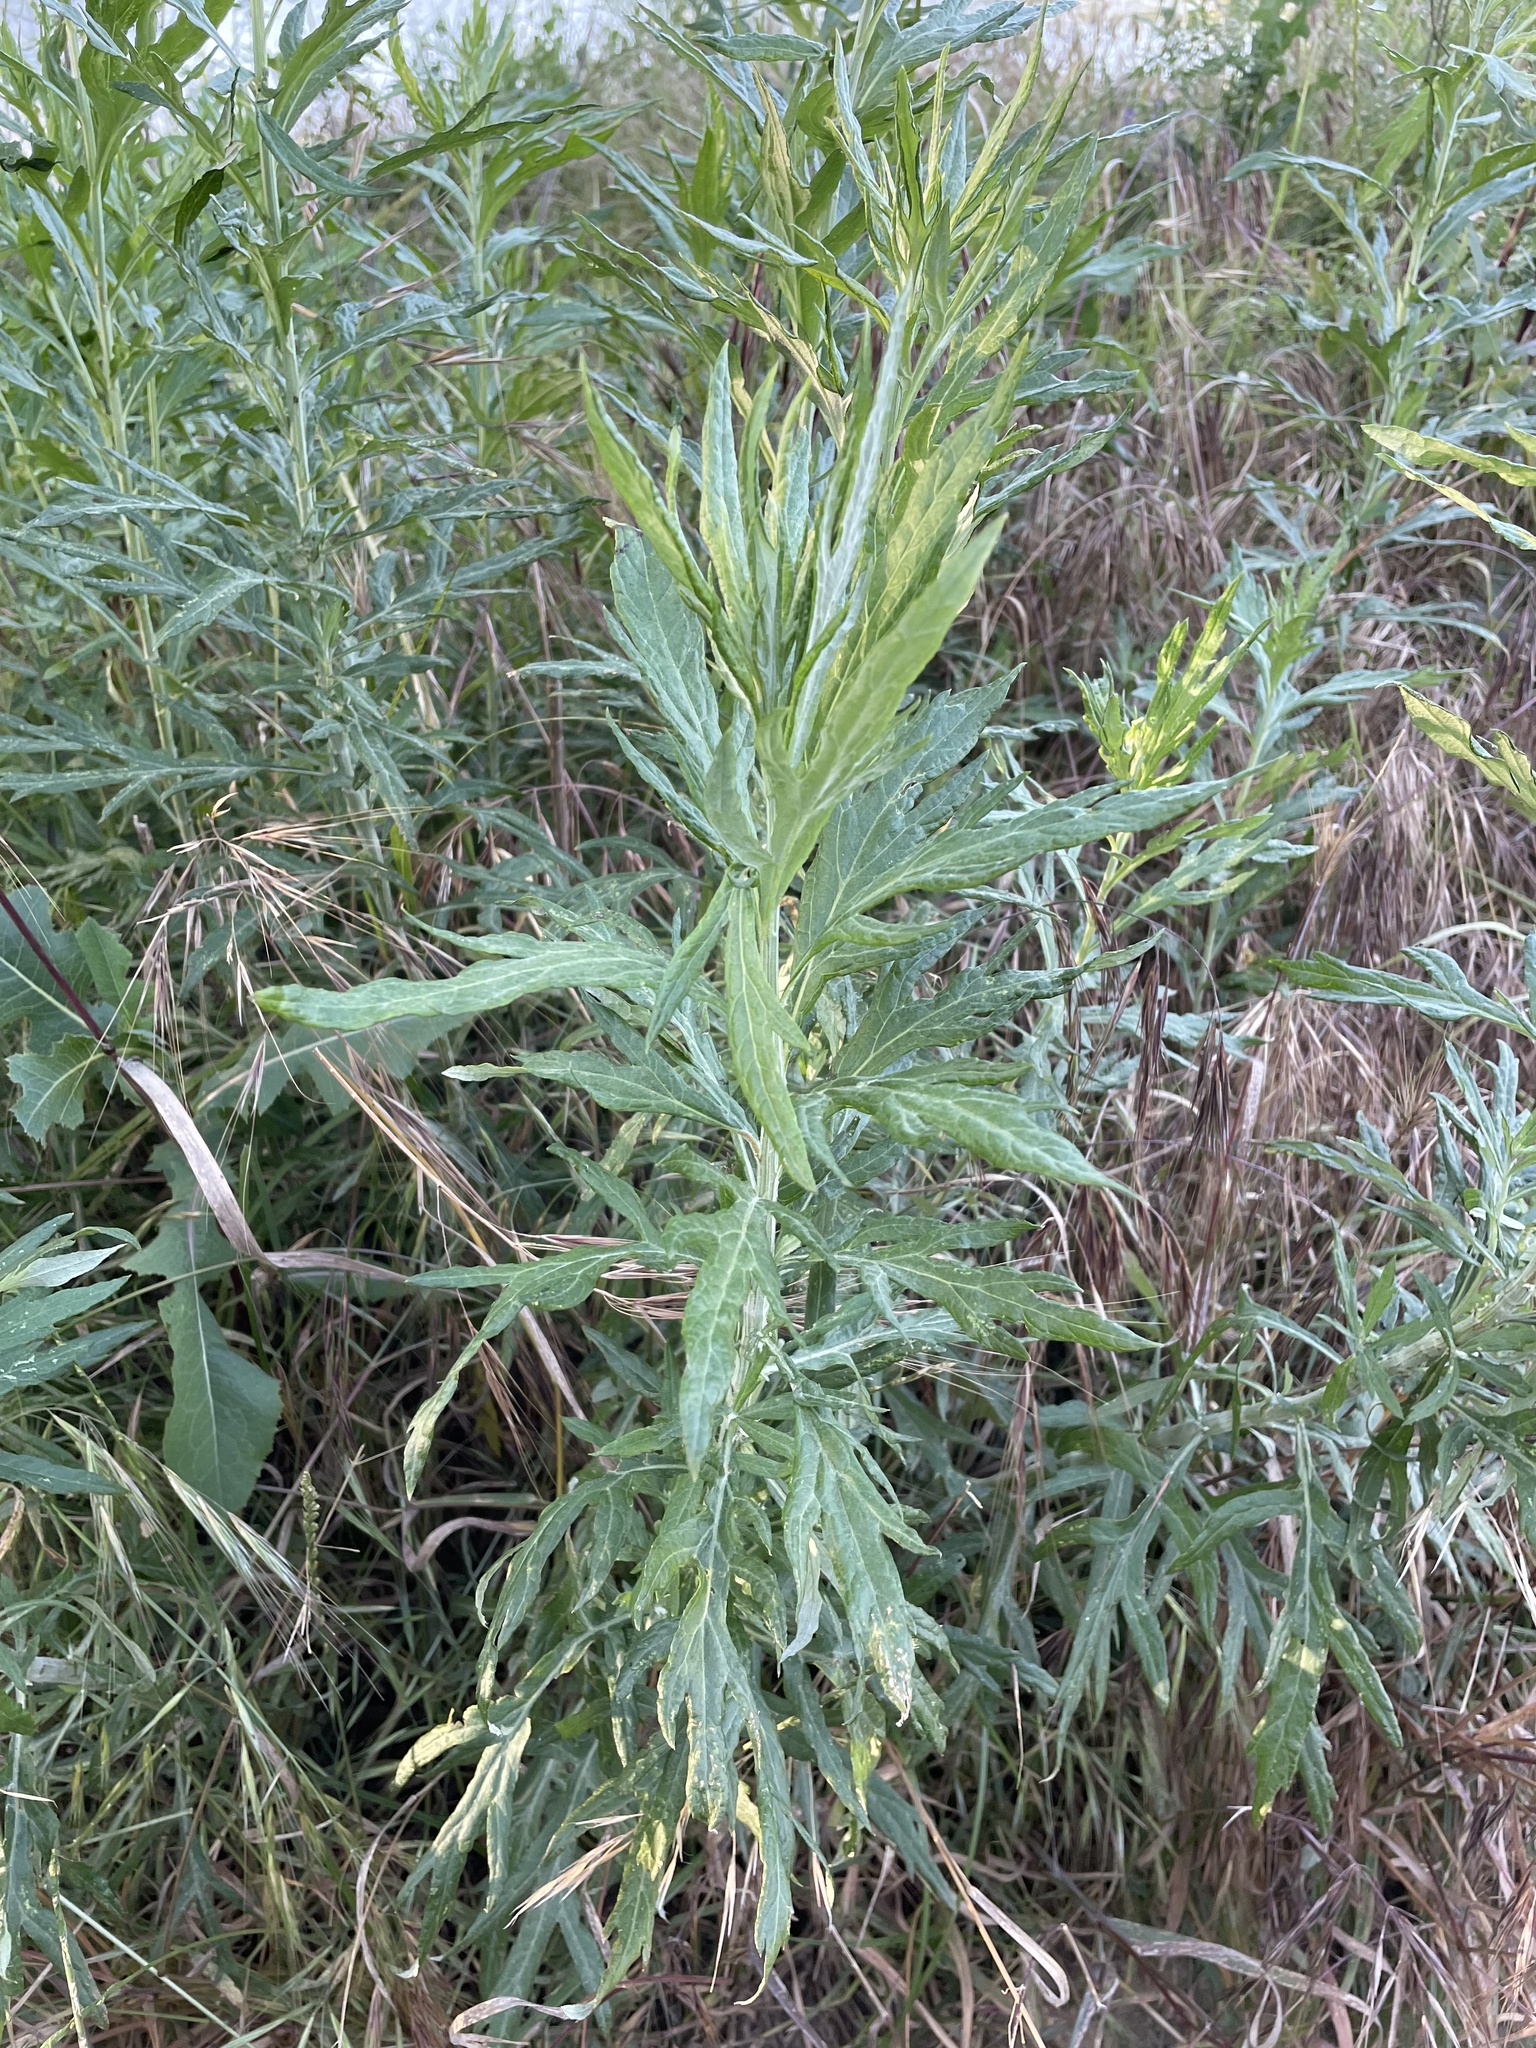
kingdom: Plantae
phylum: Tracheophyta
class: Magnoliopsida
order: Asterales
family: Asteraceae
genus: Artemisia
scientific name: Artemisia douglasiana
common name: Northwest mugwort
